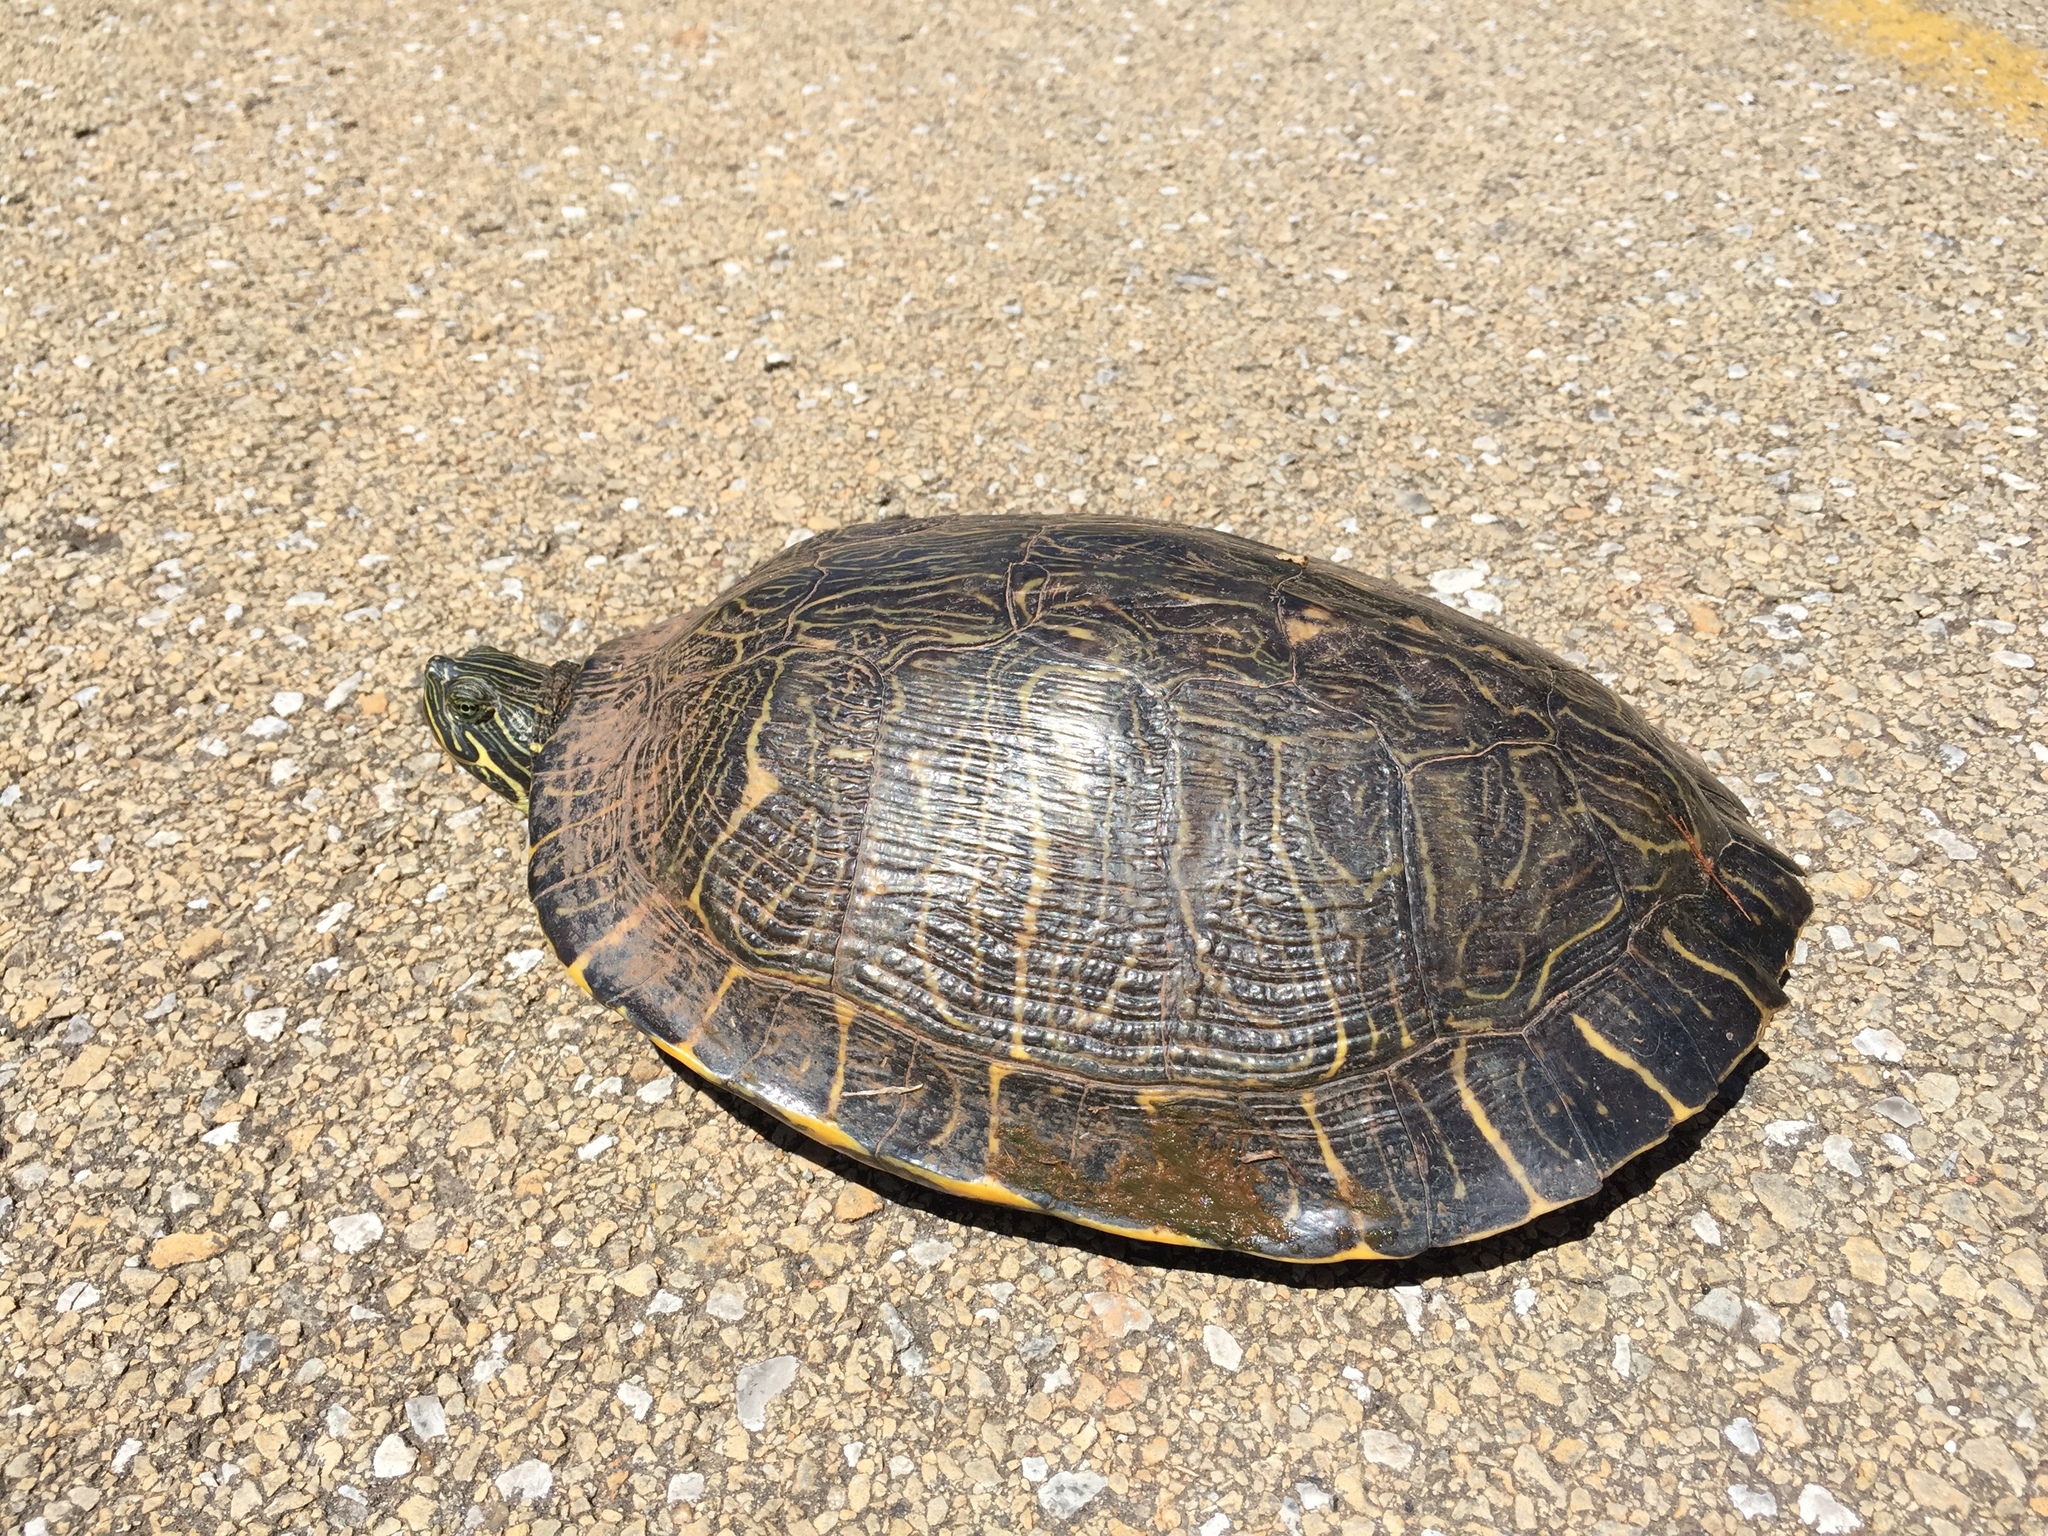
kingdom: Animalia
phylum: Chordata
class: Testudines
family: Emydidae
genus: Pseudemys
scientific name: Pseudemys concinna
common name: Eastern river cooter
